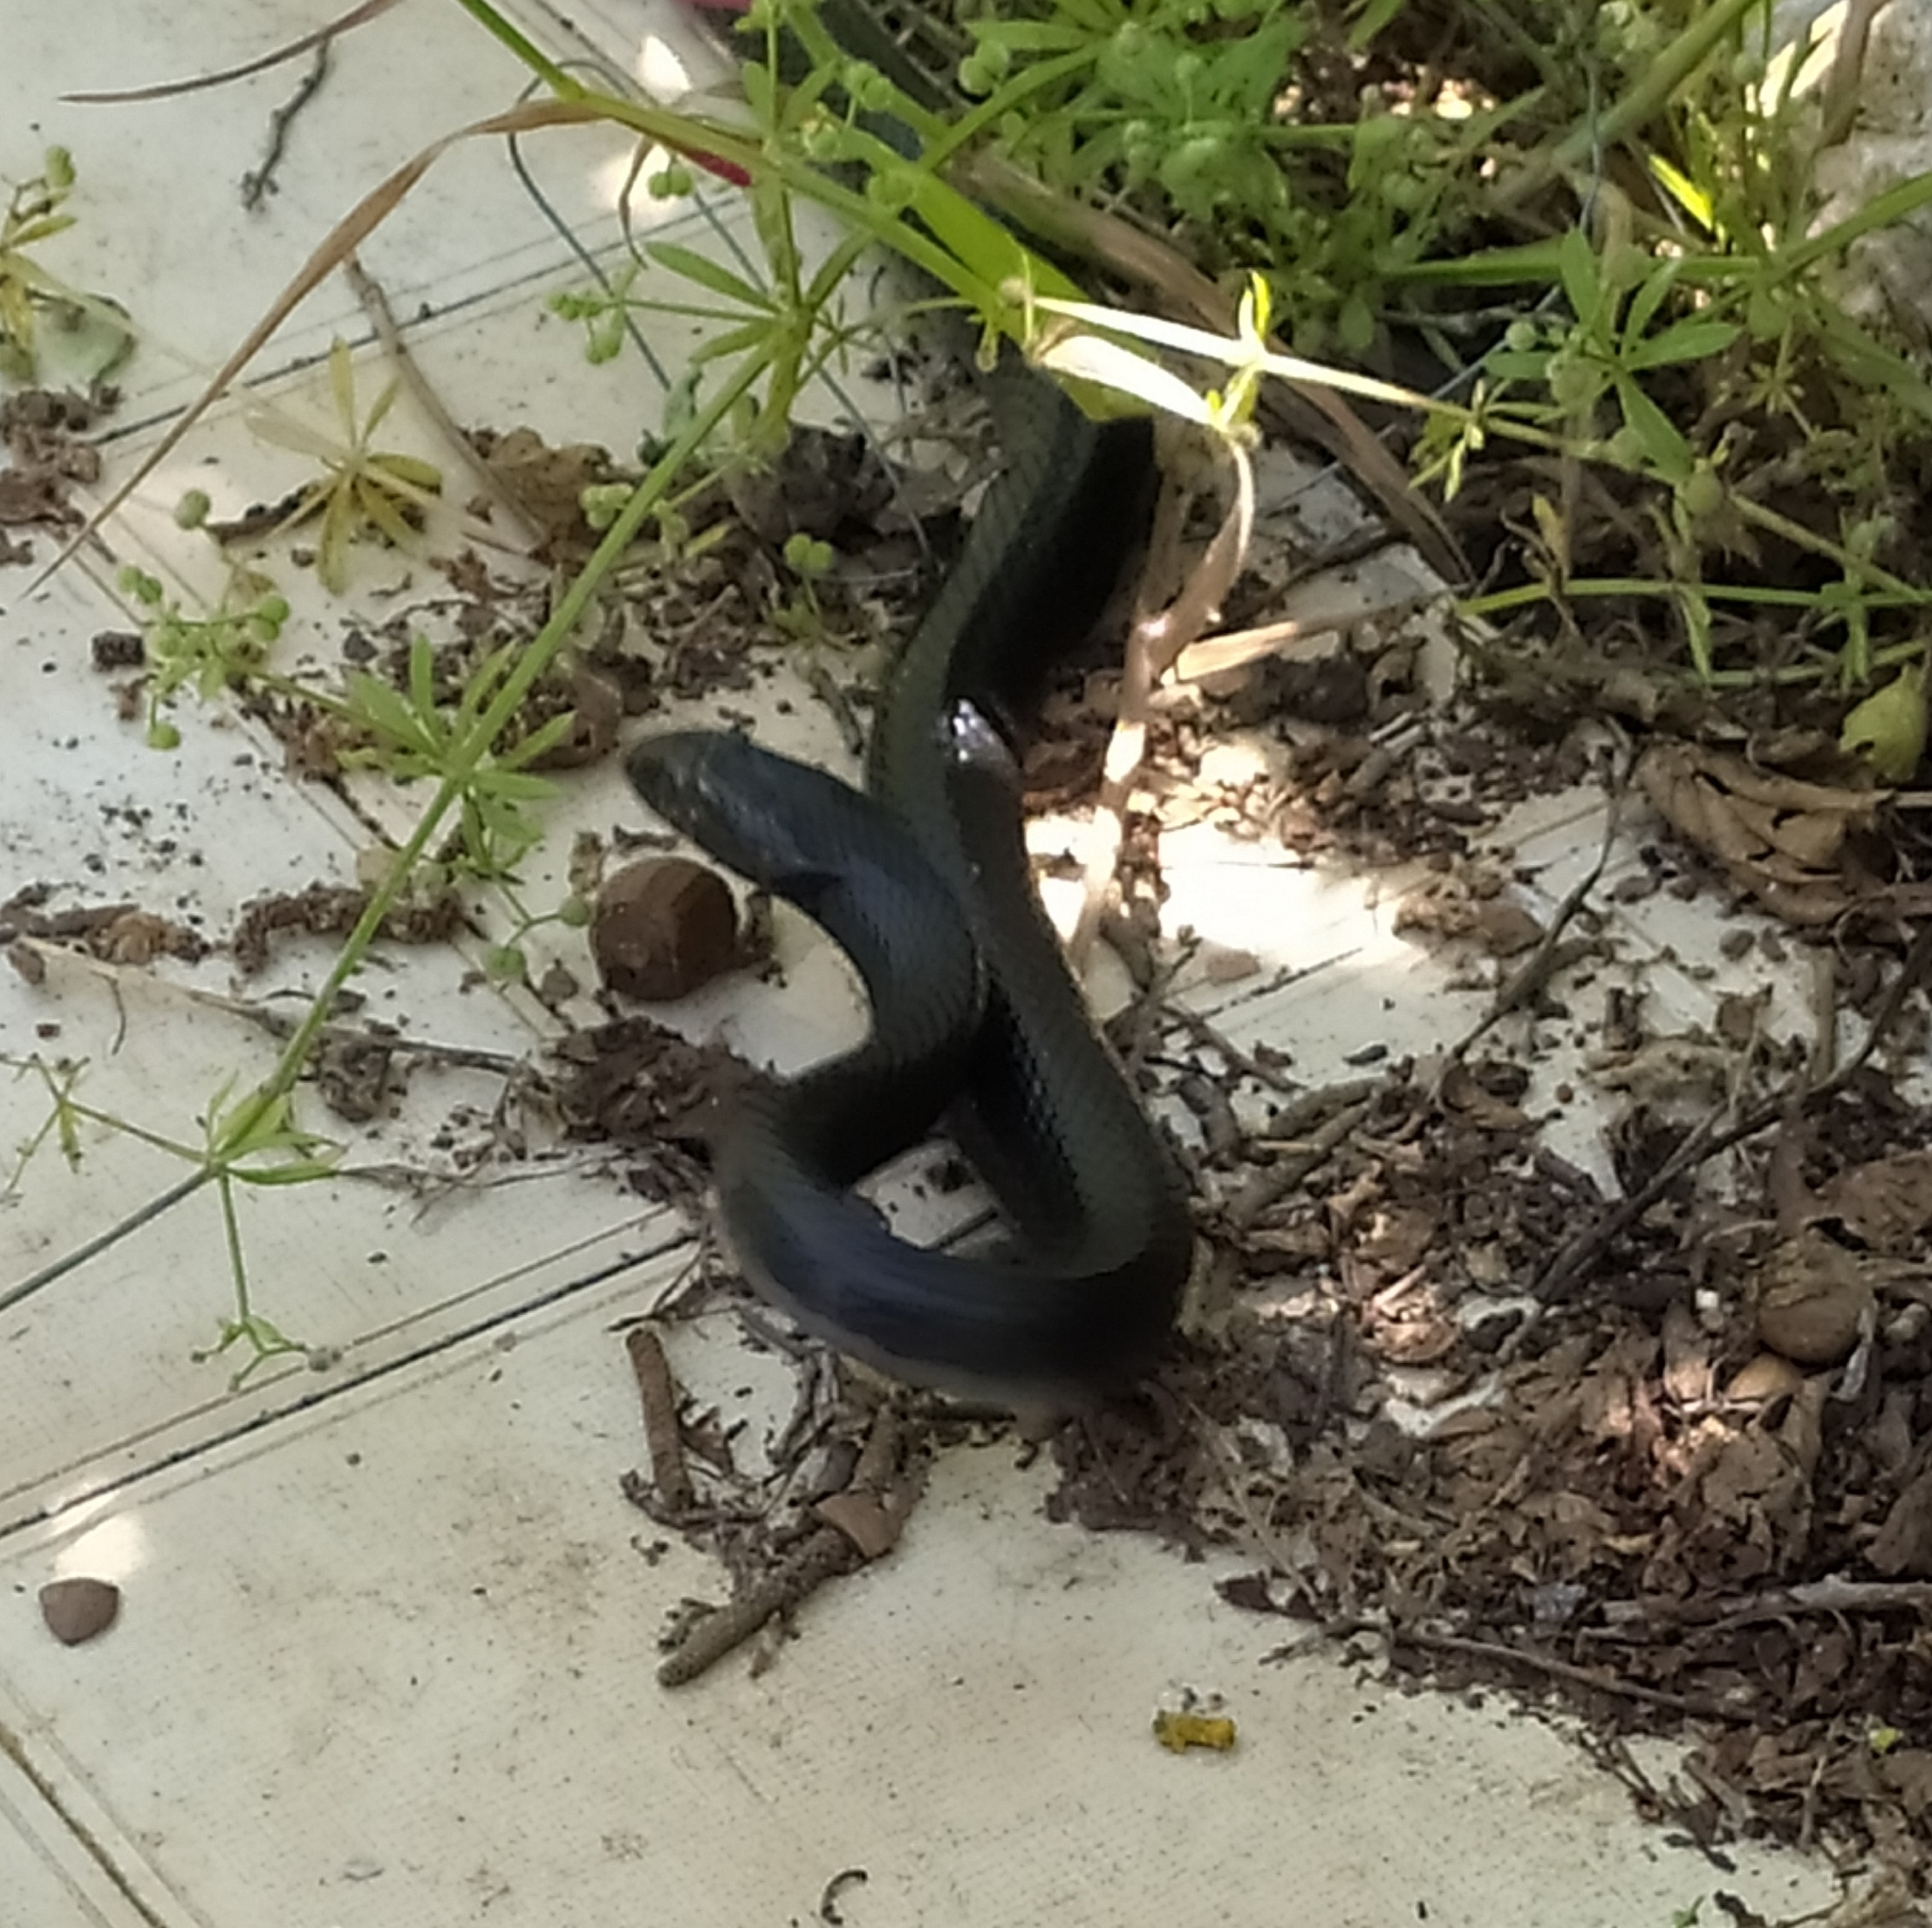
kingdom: Animalia
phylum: Chordata
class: Squamata
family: Colubridae
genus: Hierophis
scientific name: Hierophis viridiflavus
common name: Green whip snake
